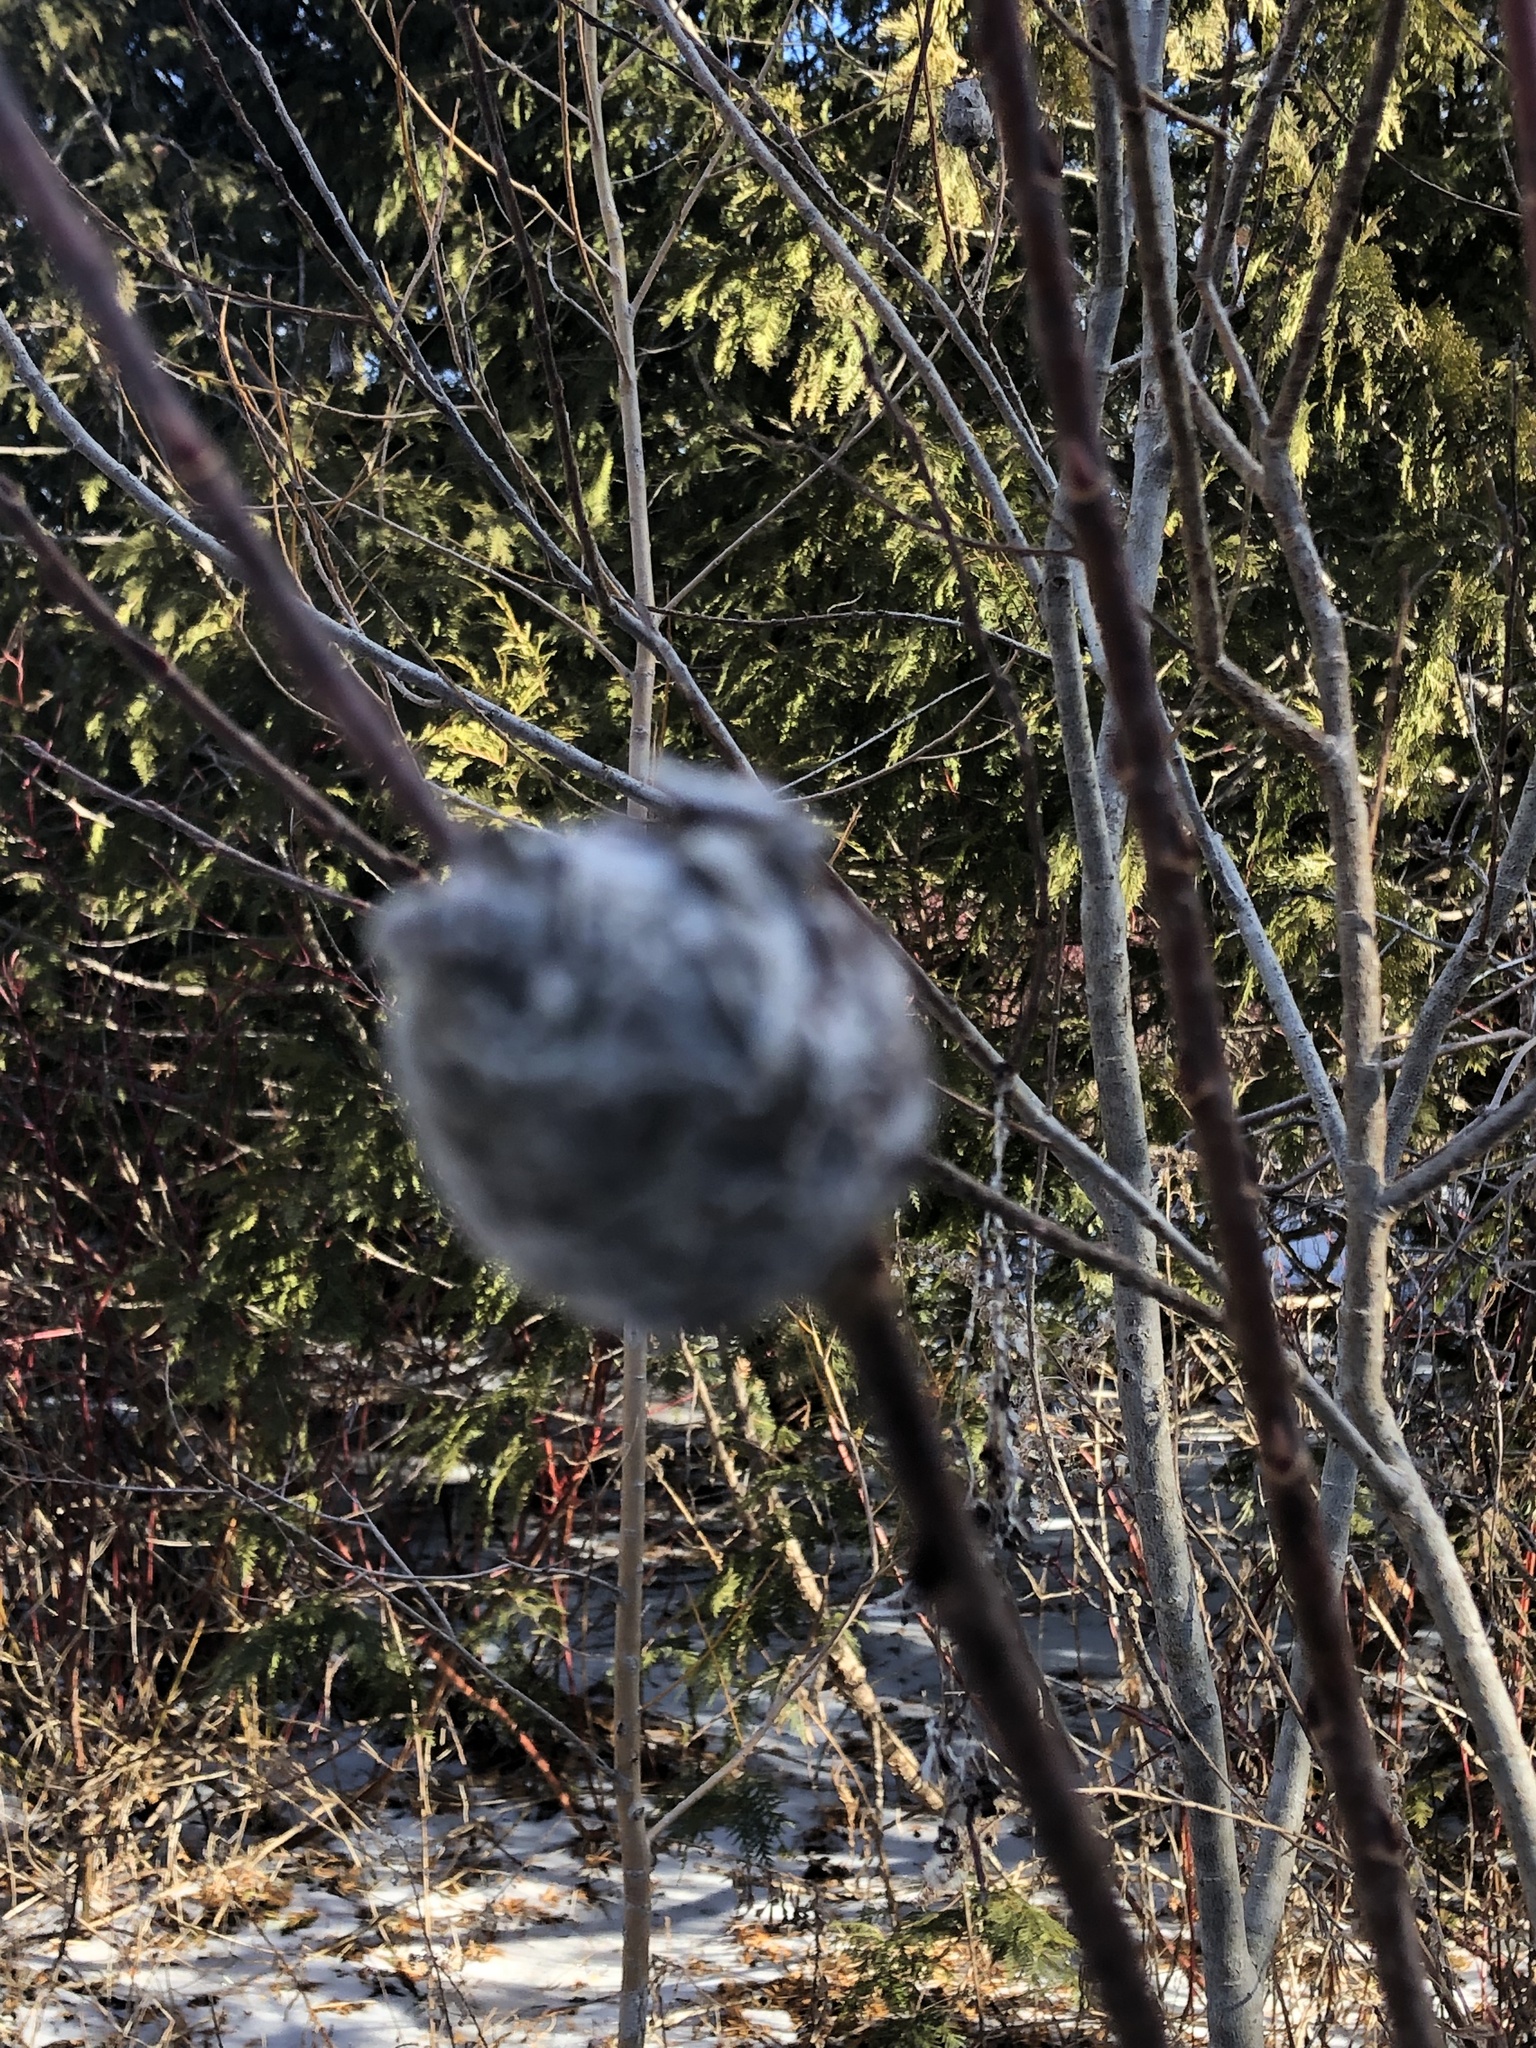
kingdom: Animalia
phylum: Arthropoda
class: Insecta
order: Diptera
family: Cecidomyiidae
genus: Rabdophaga
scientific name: Rabdophaga strobiloides
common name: Willow pinecone gall midge
